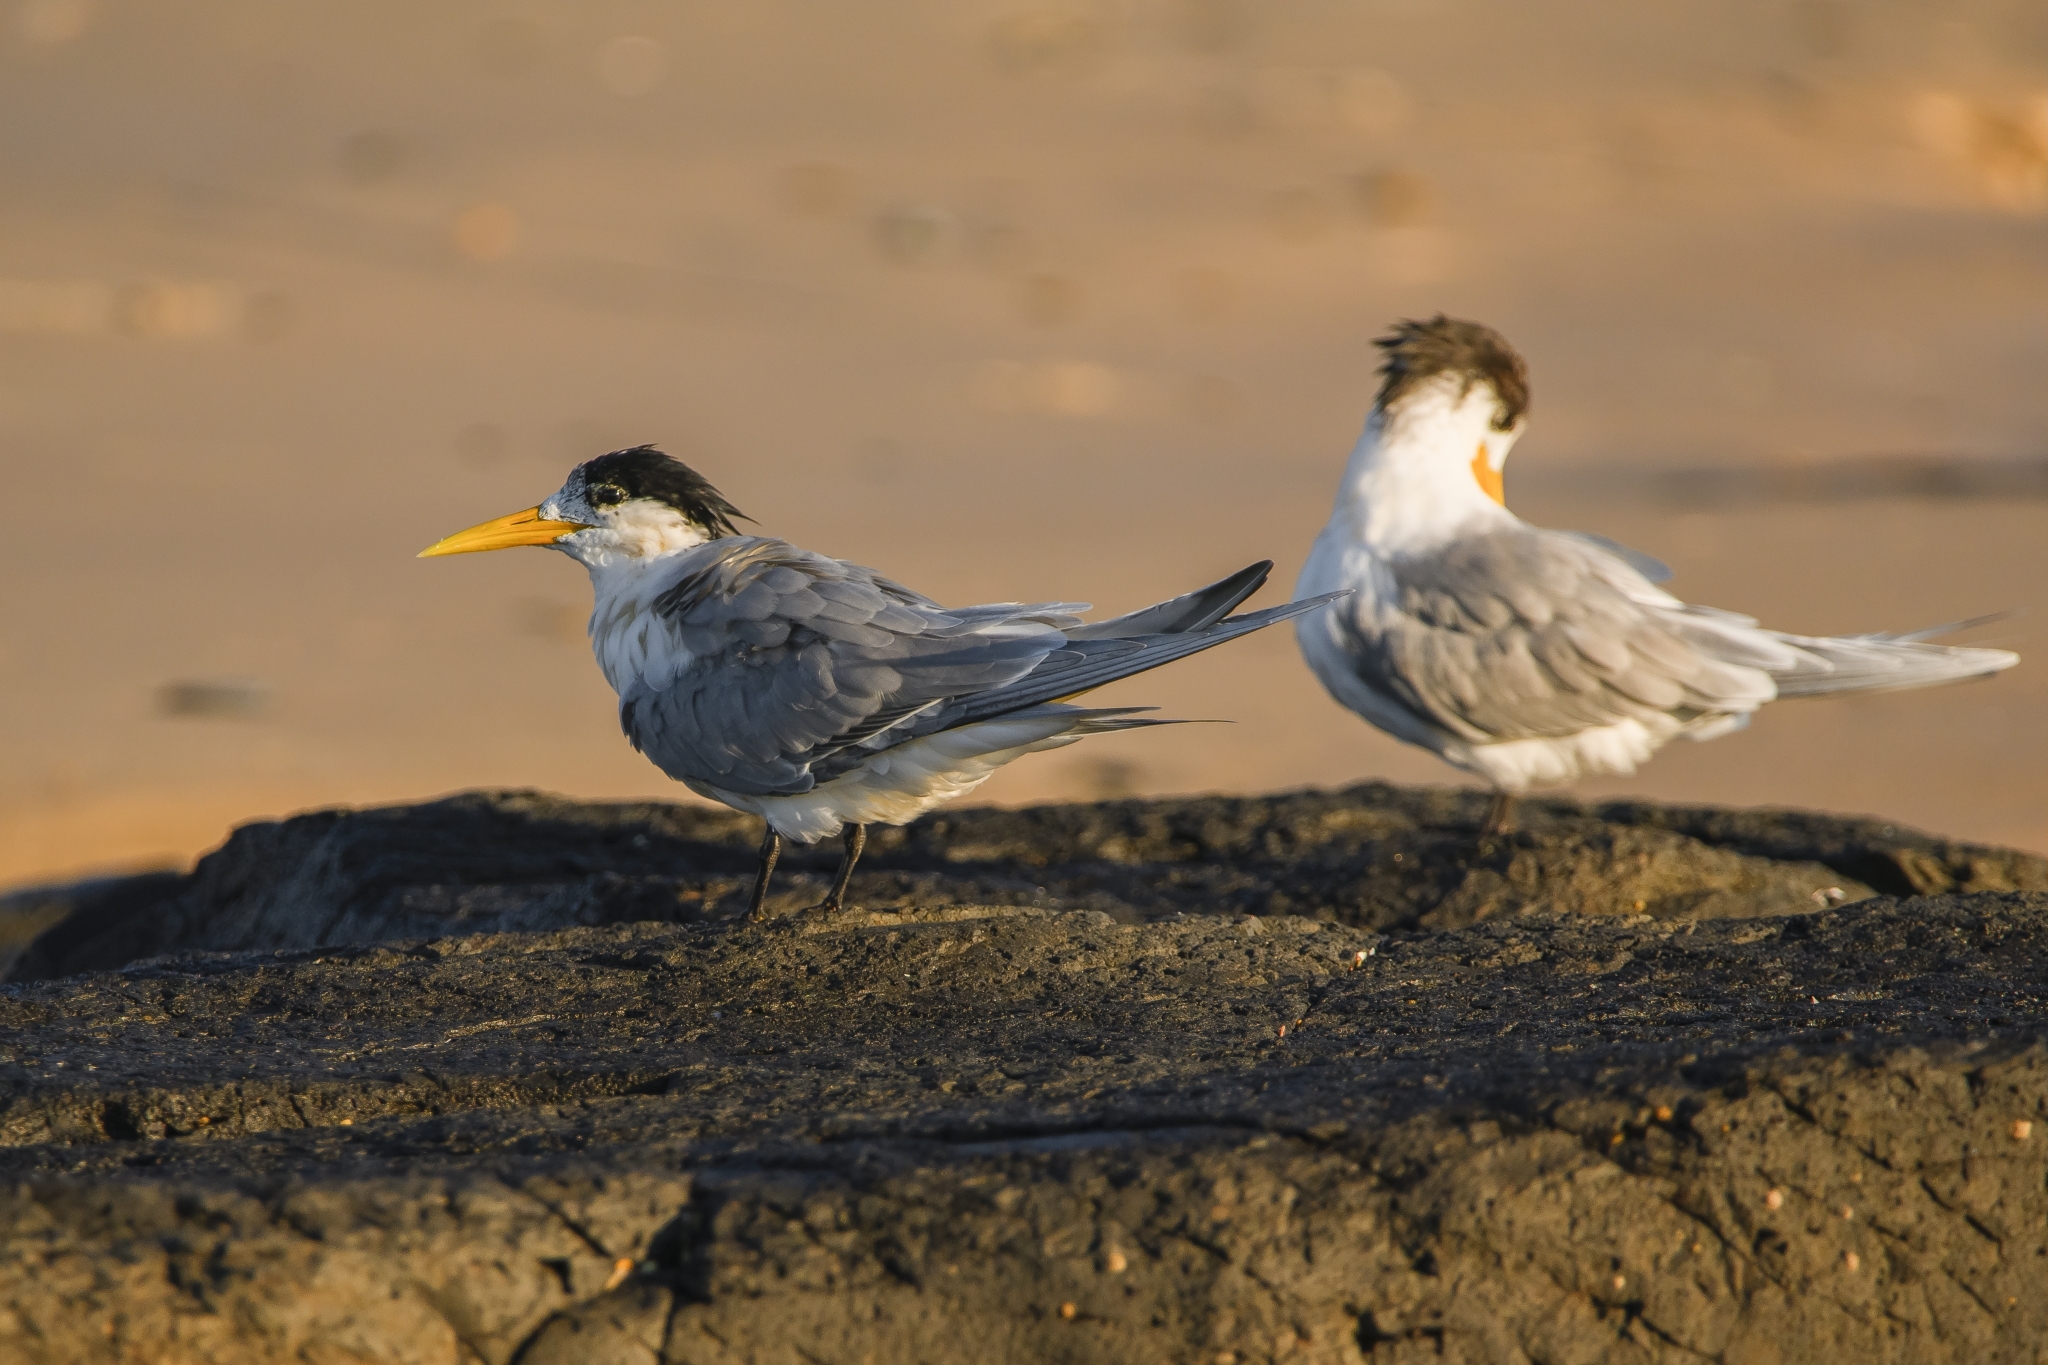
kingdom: Animalia
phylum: Chordata
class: Aves
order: Charadriiformes
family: Laridae
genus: Thalasseus
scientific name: Thalasseus bergii
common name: Greater crested tern
